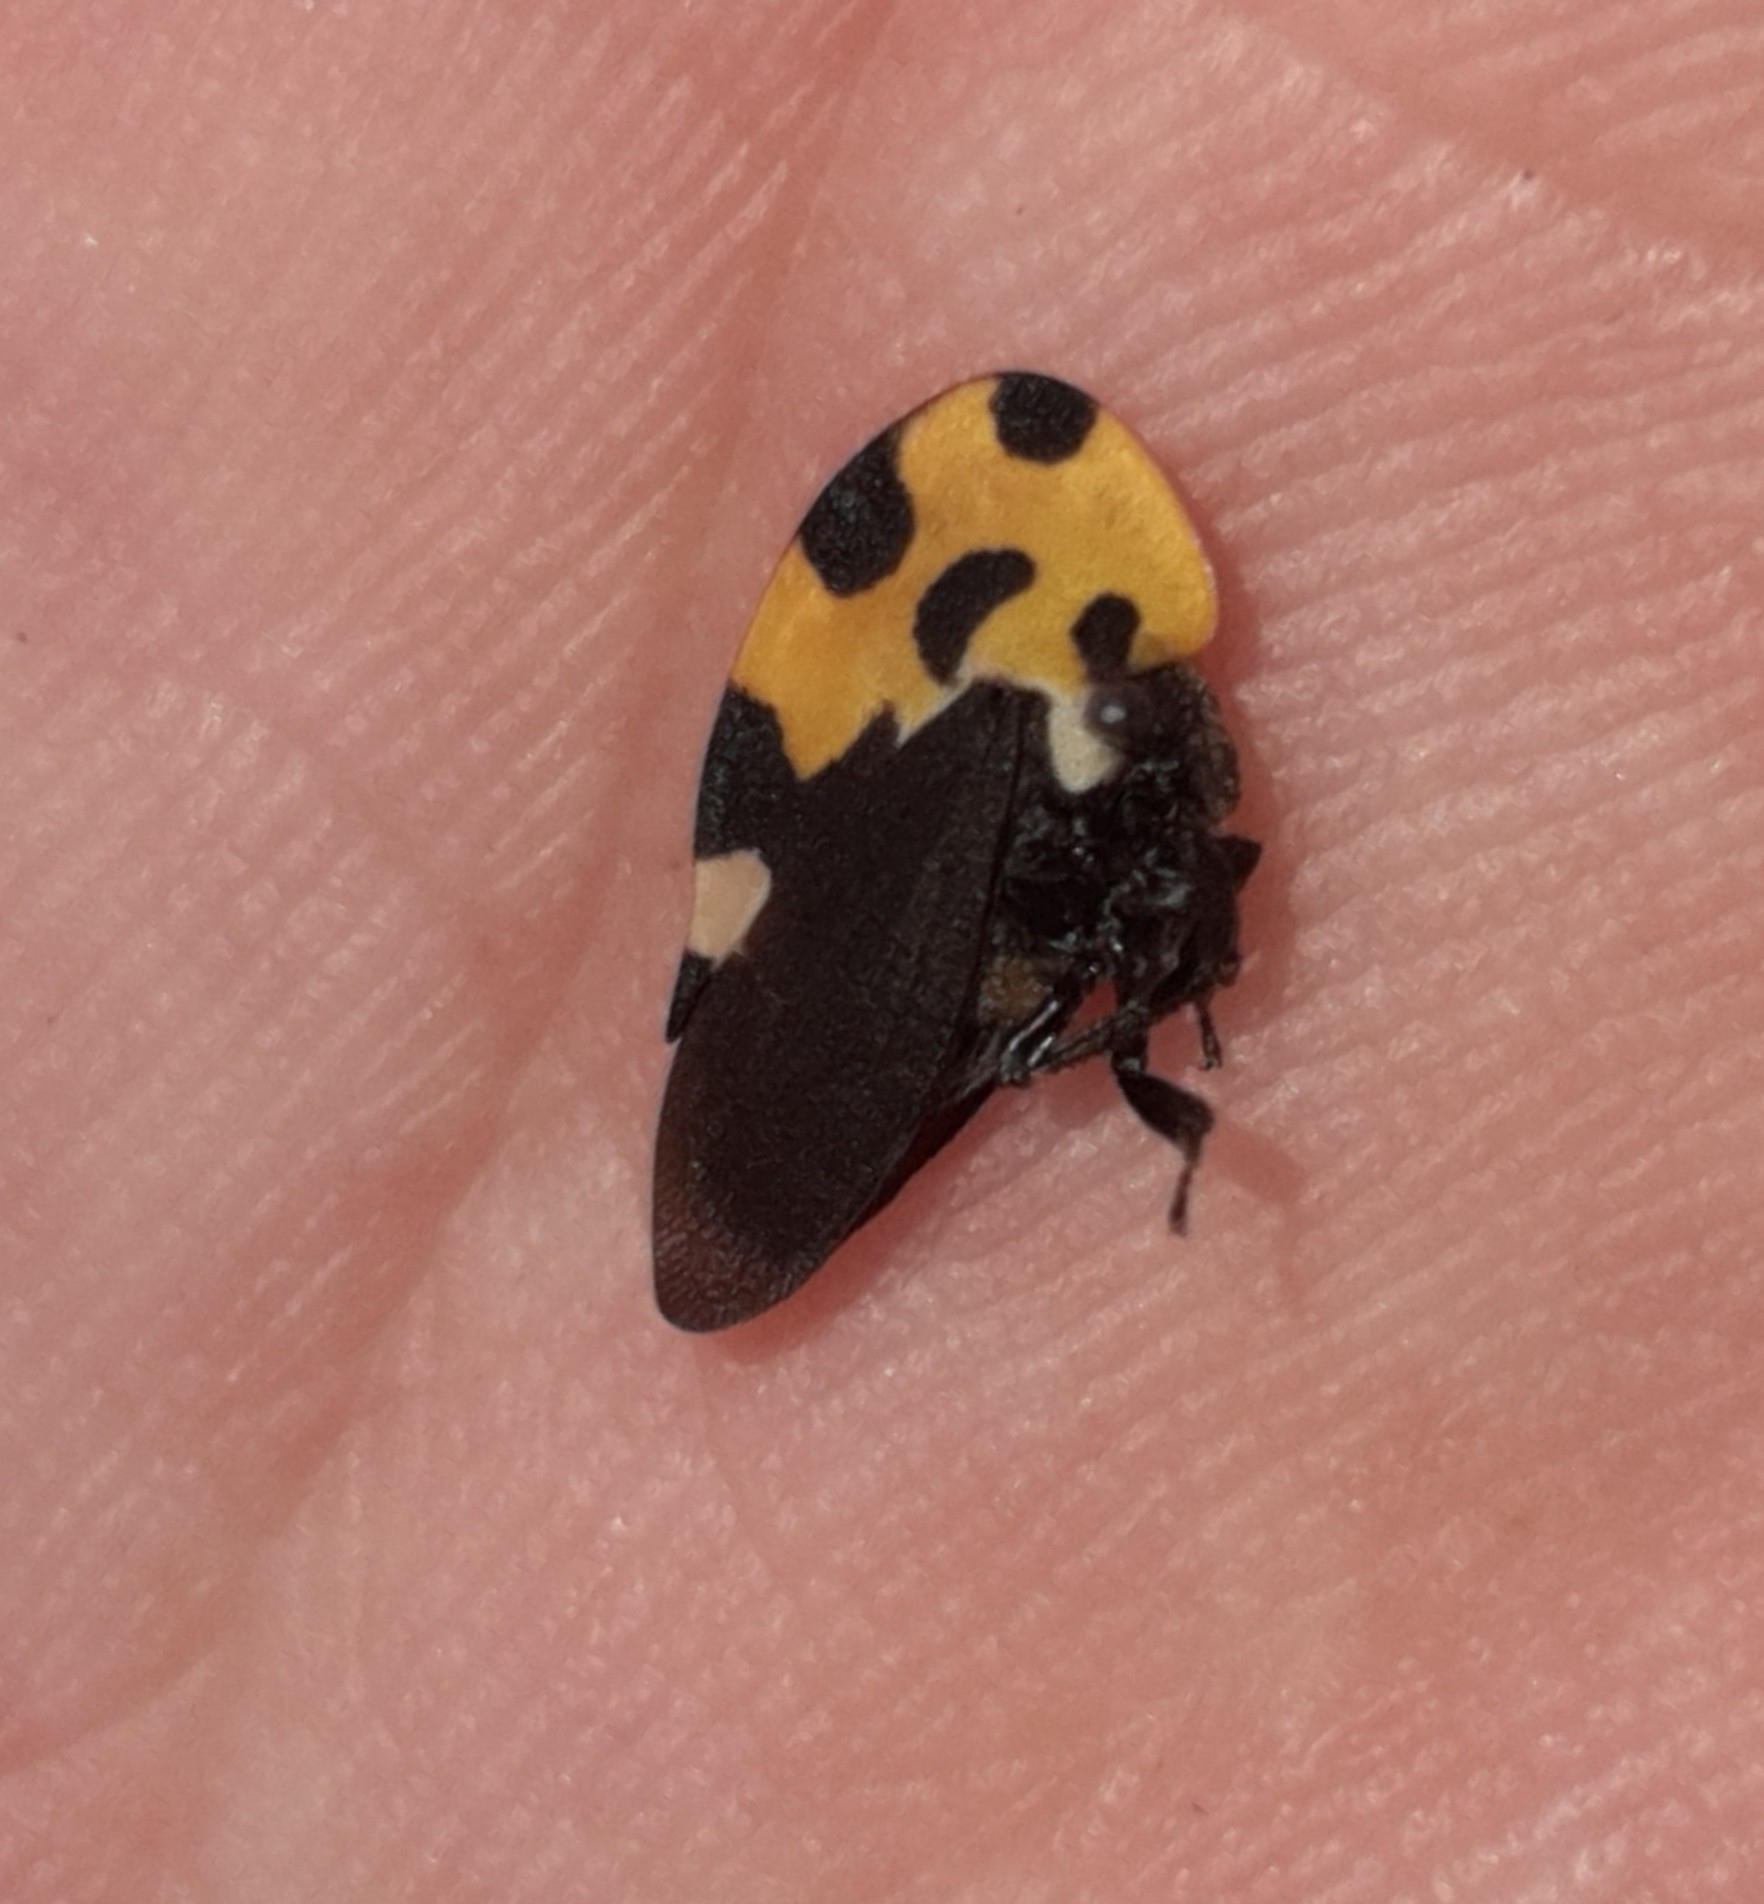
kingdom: Animalia
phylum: Arthropoda
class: Insecta
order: Hemiptera
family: Membracidae
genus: Membracis
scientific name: Membracis mexicana
